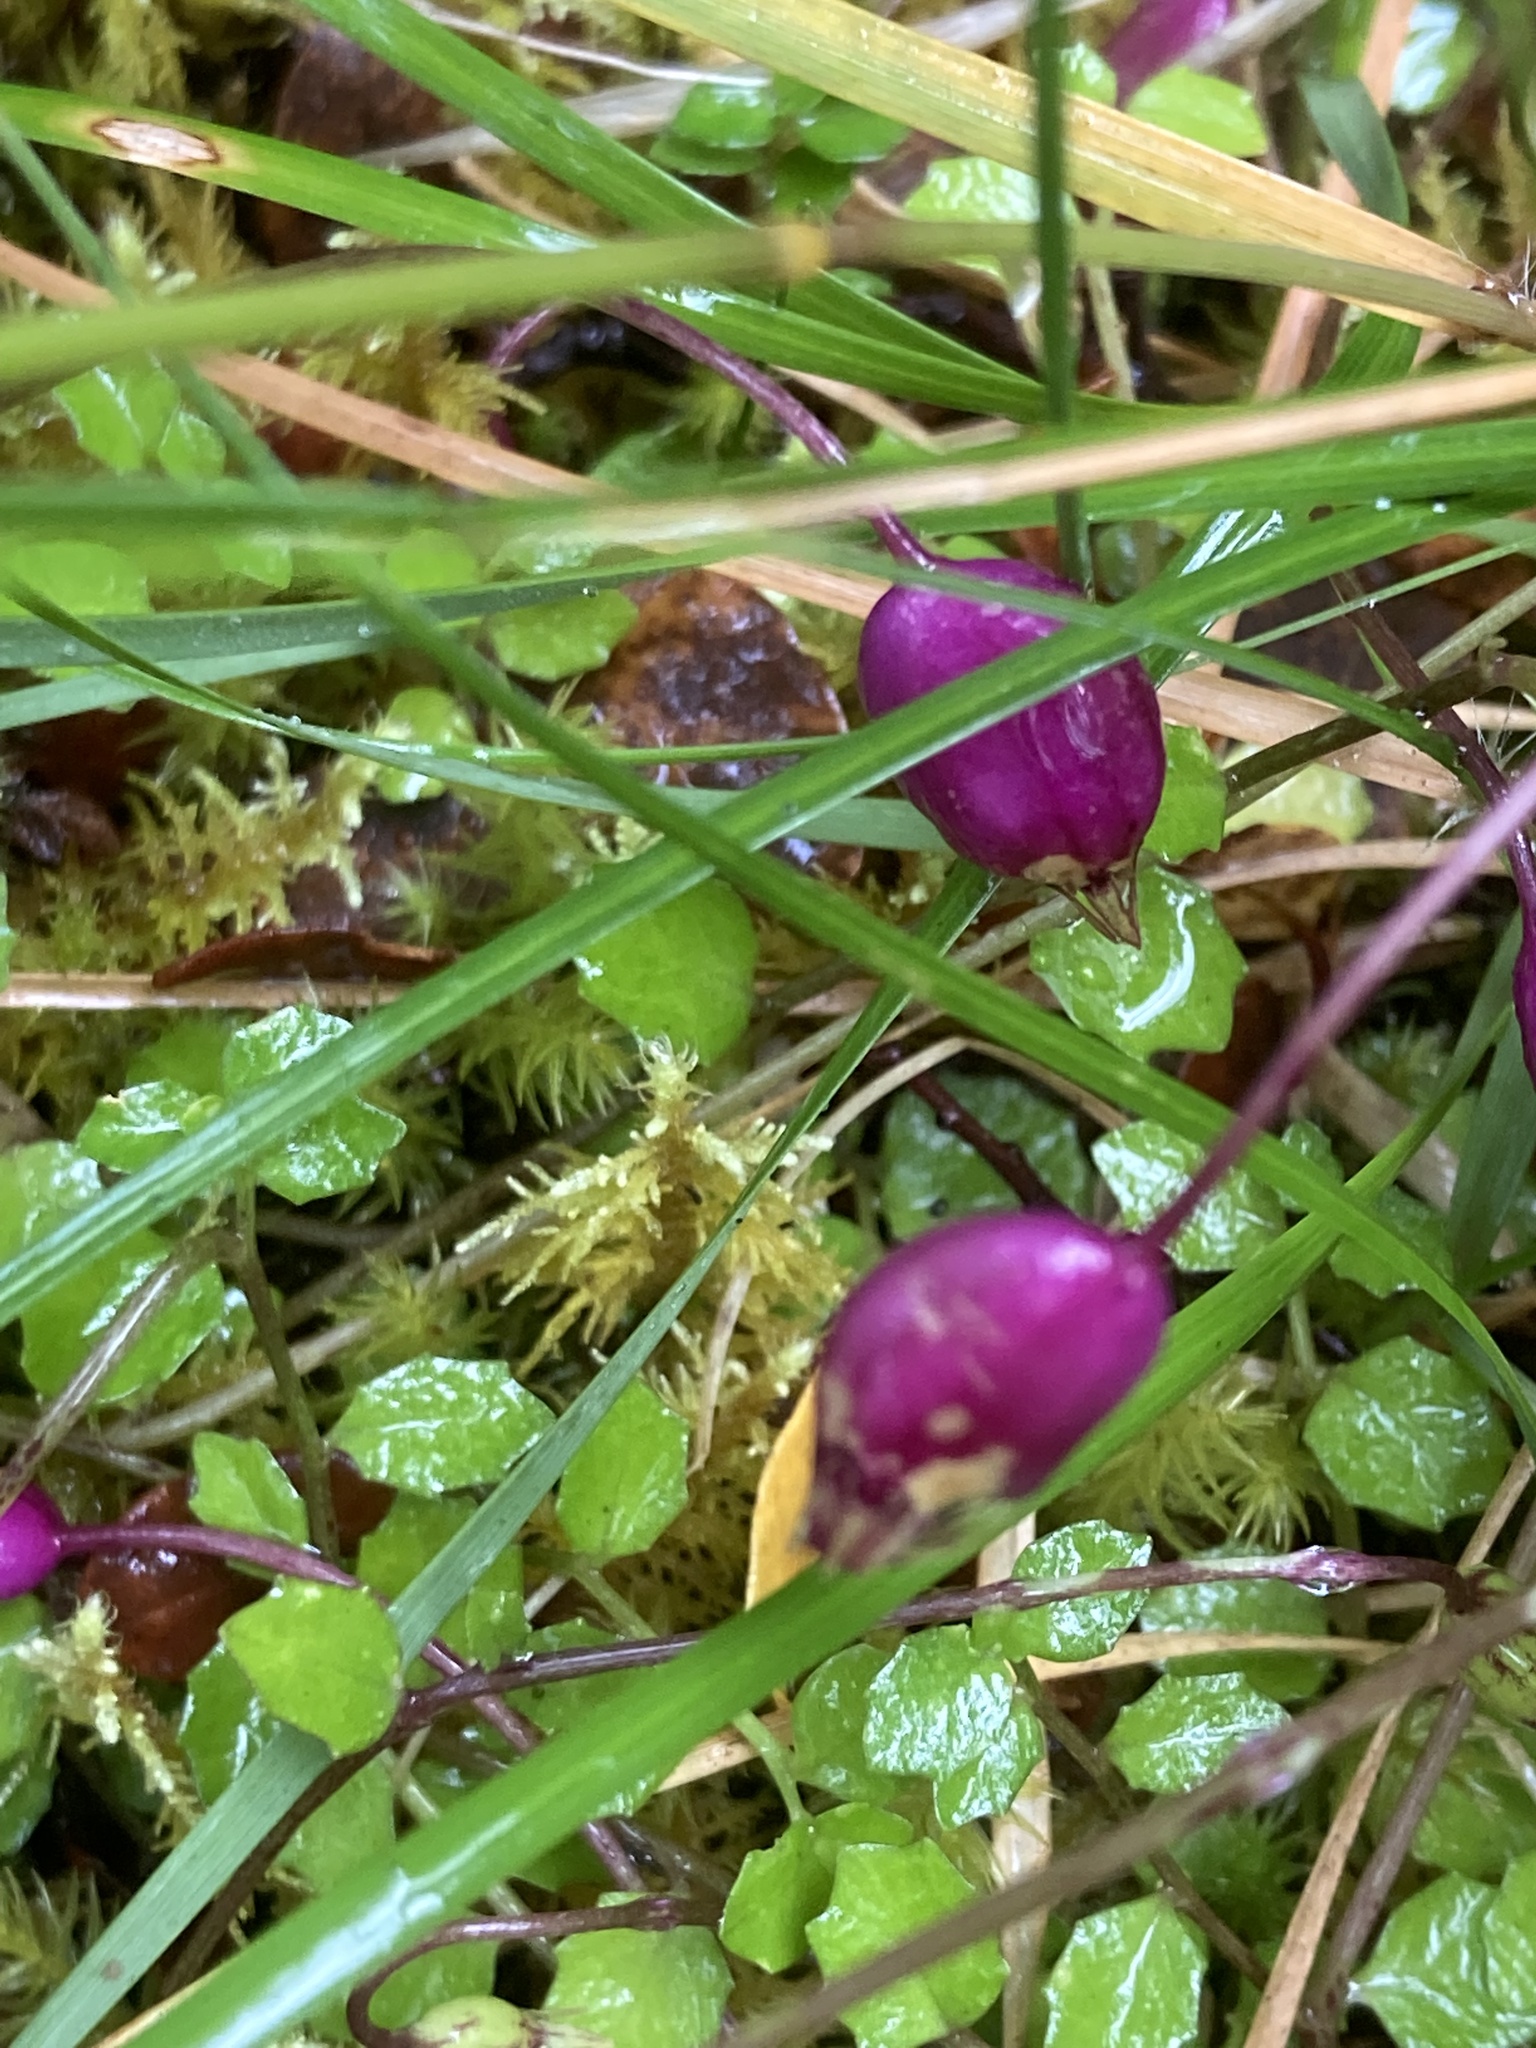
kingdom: Plantae
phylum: Tracheophyta
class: Magnoliopsida
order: Asterales
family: Campanulaceae
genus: Lobelia
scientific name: Lobelia angulata
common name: Lawn lobelia
